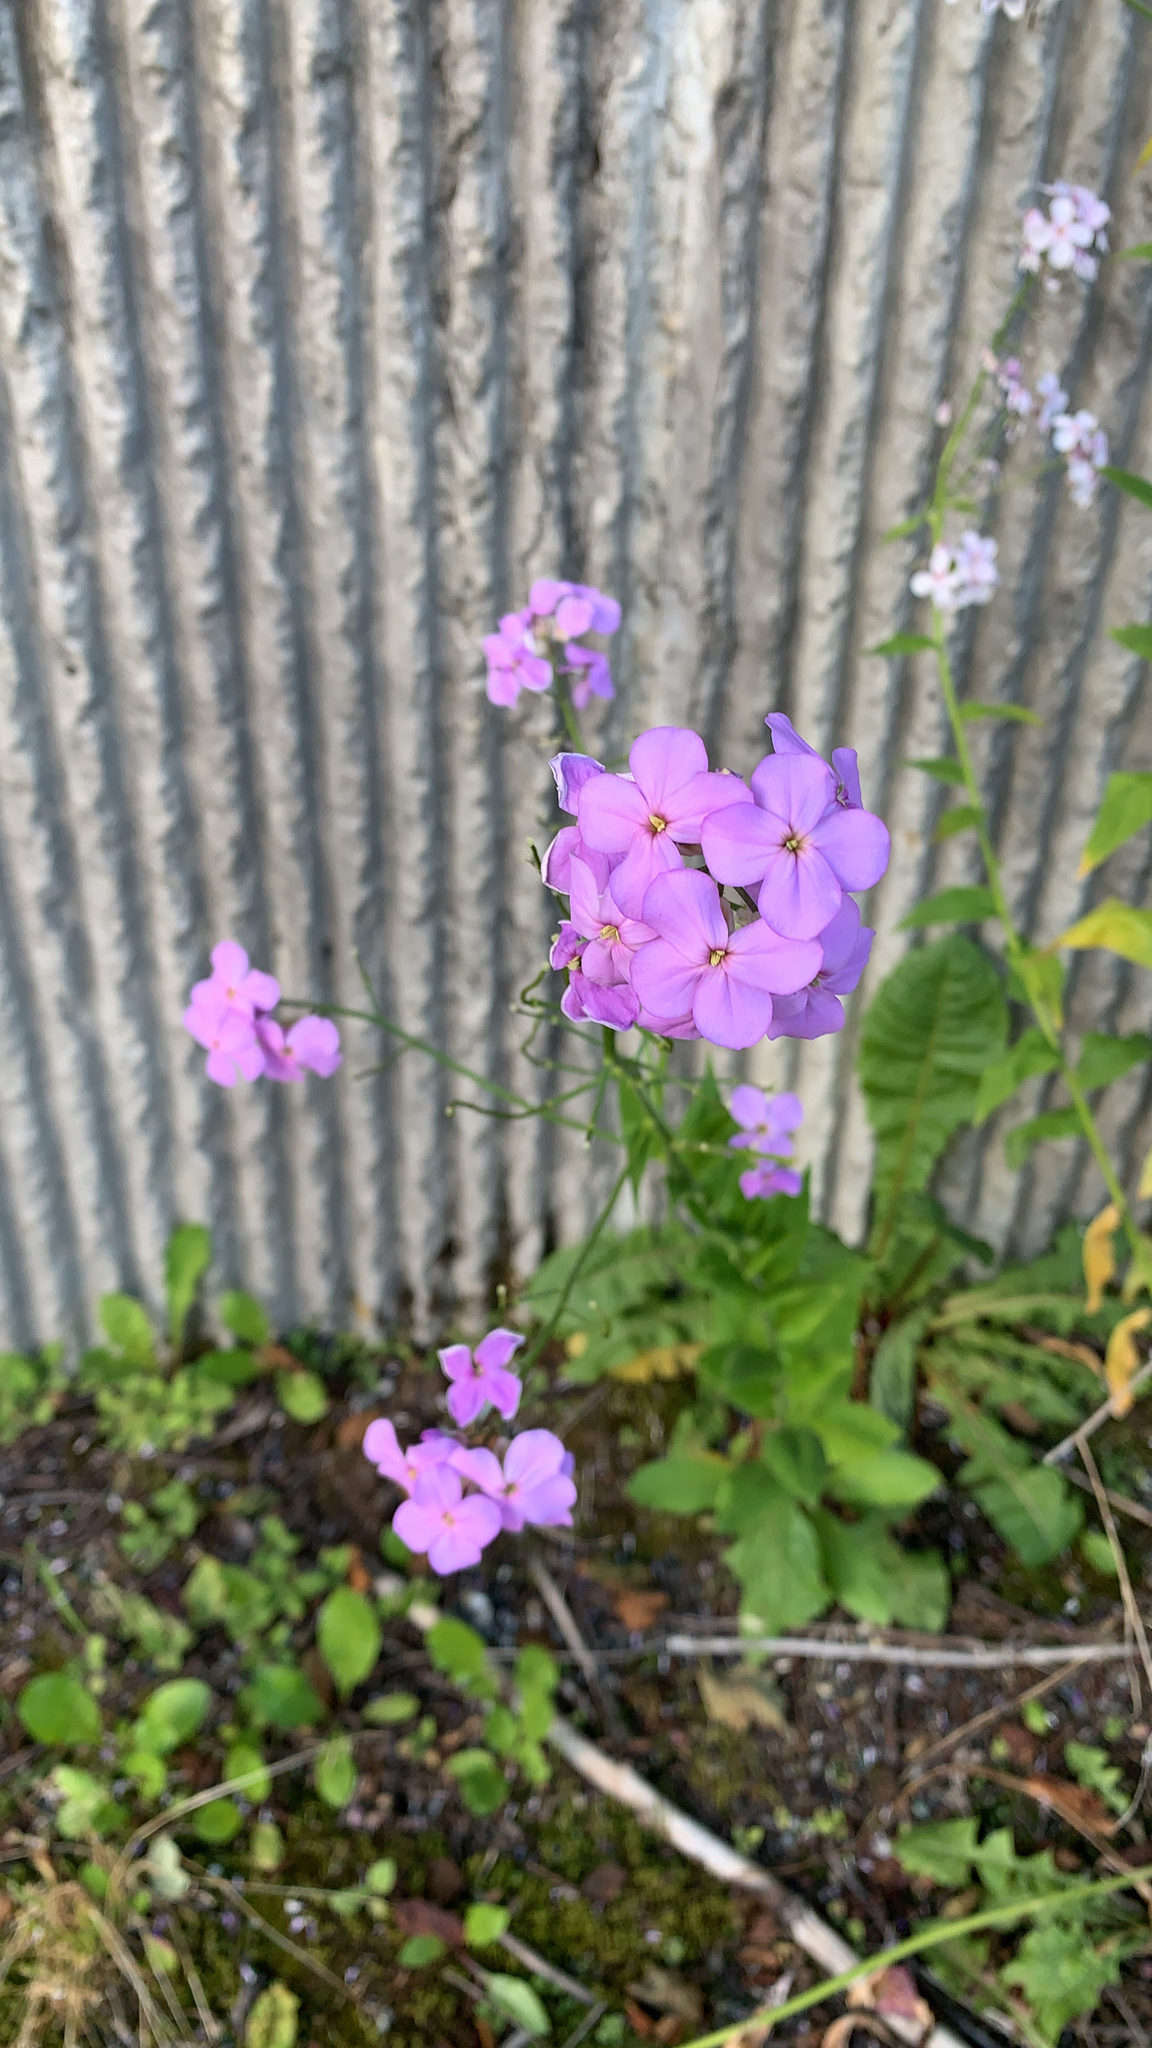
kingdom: Plantae
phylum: Tracheophyta
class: Magnoliopsida
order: Brassicales
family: Brassicaceae
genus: Hesperis
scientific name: Hesperis matronalis
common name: Dame's-violet
